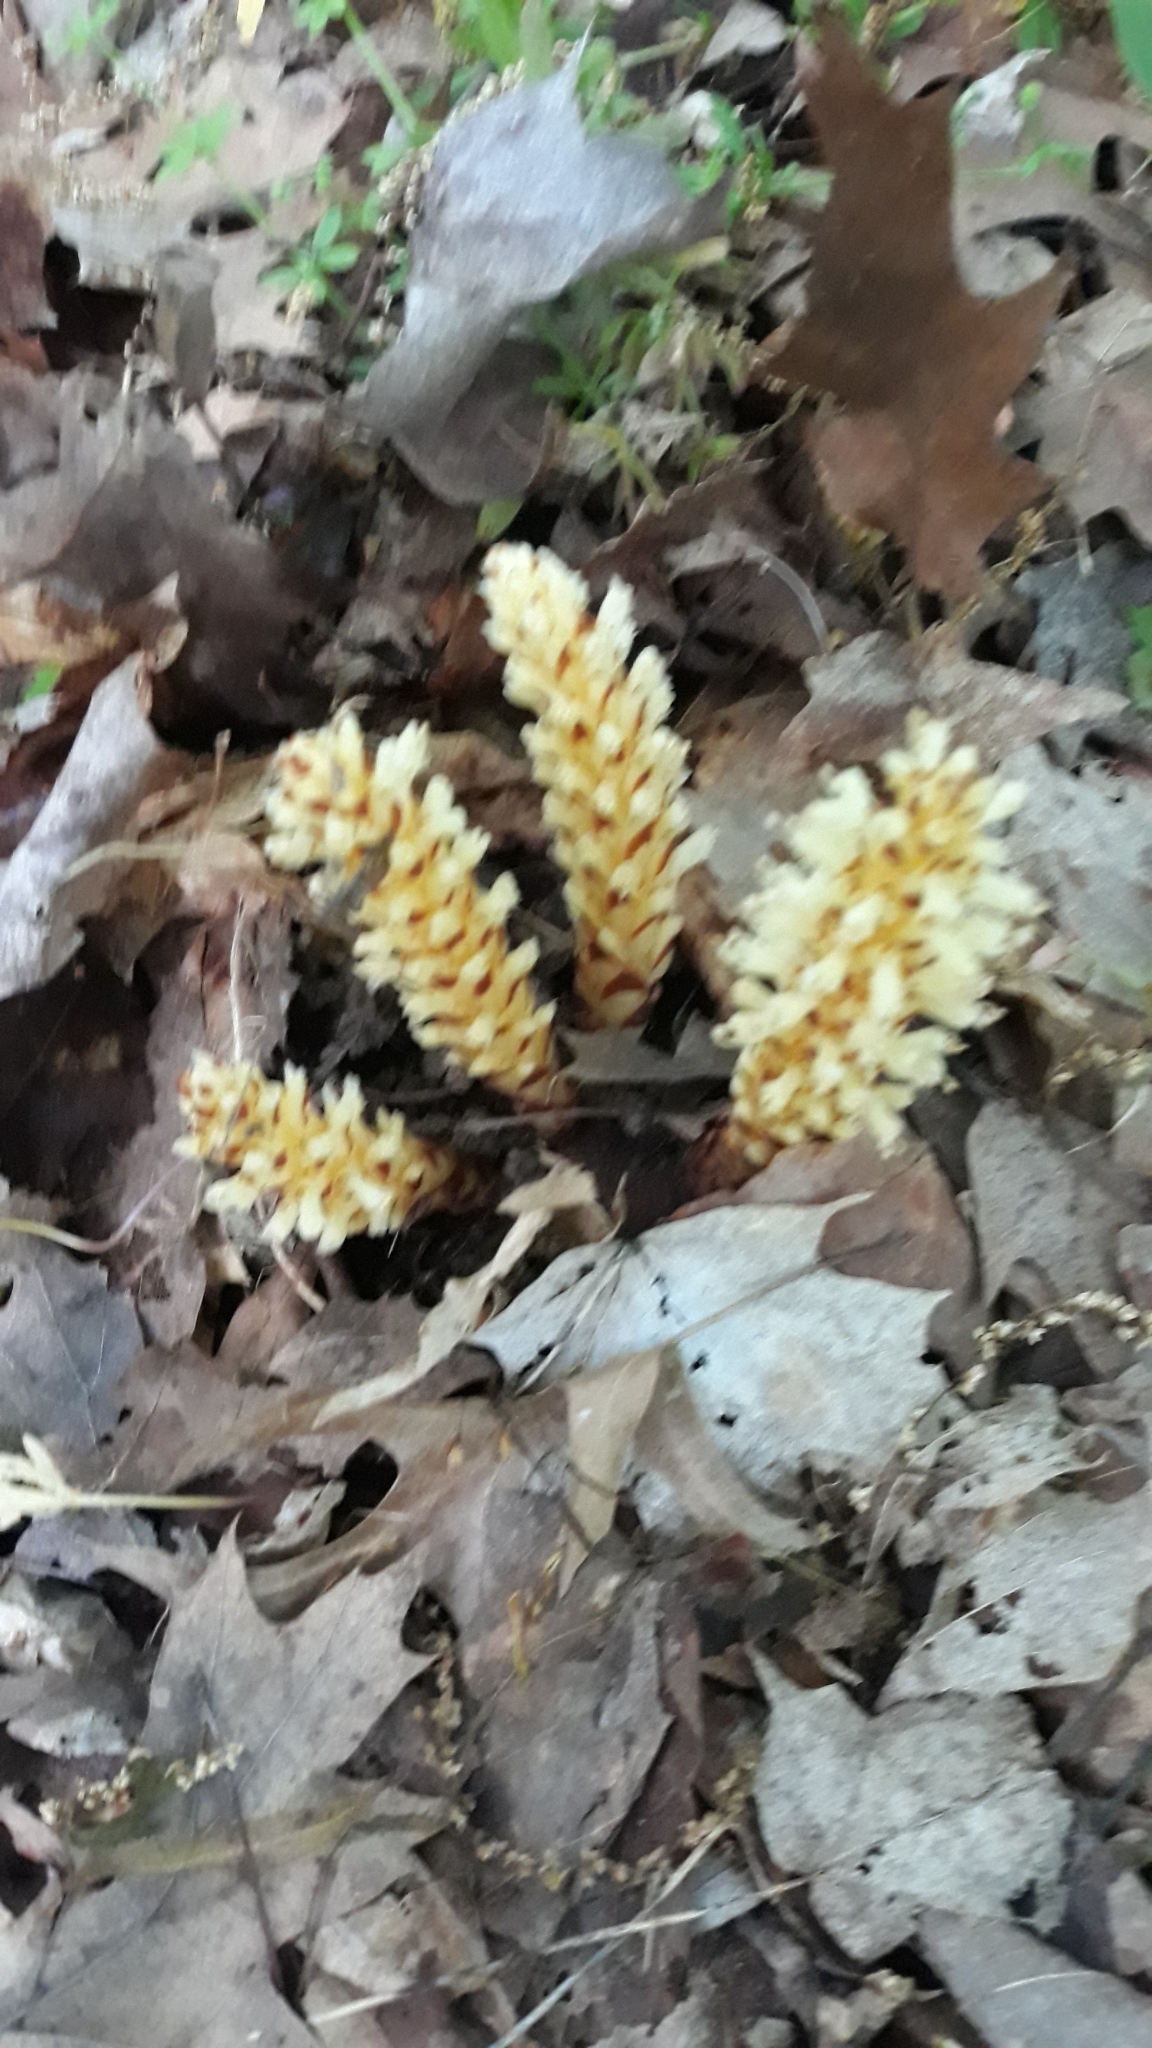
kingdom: Plantae
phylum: Tracheophyta
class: Magnoliopsida
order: Lamiales
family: Orobanchaceae
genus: Conopholis
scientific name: Conopholis americana
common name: American cancer-root
